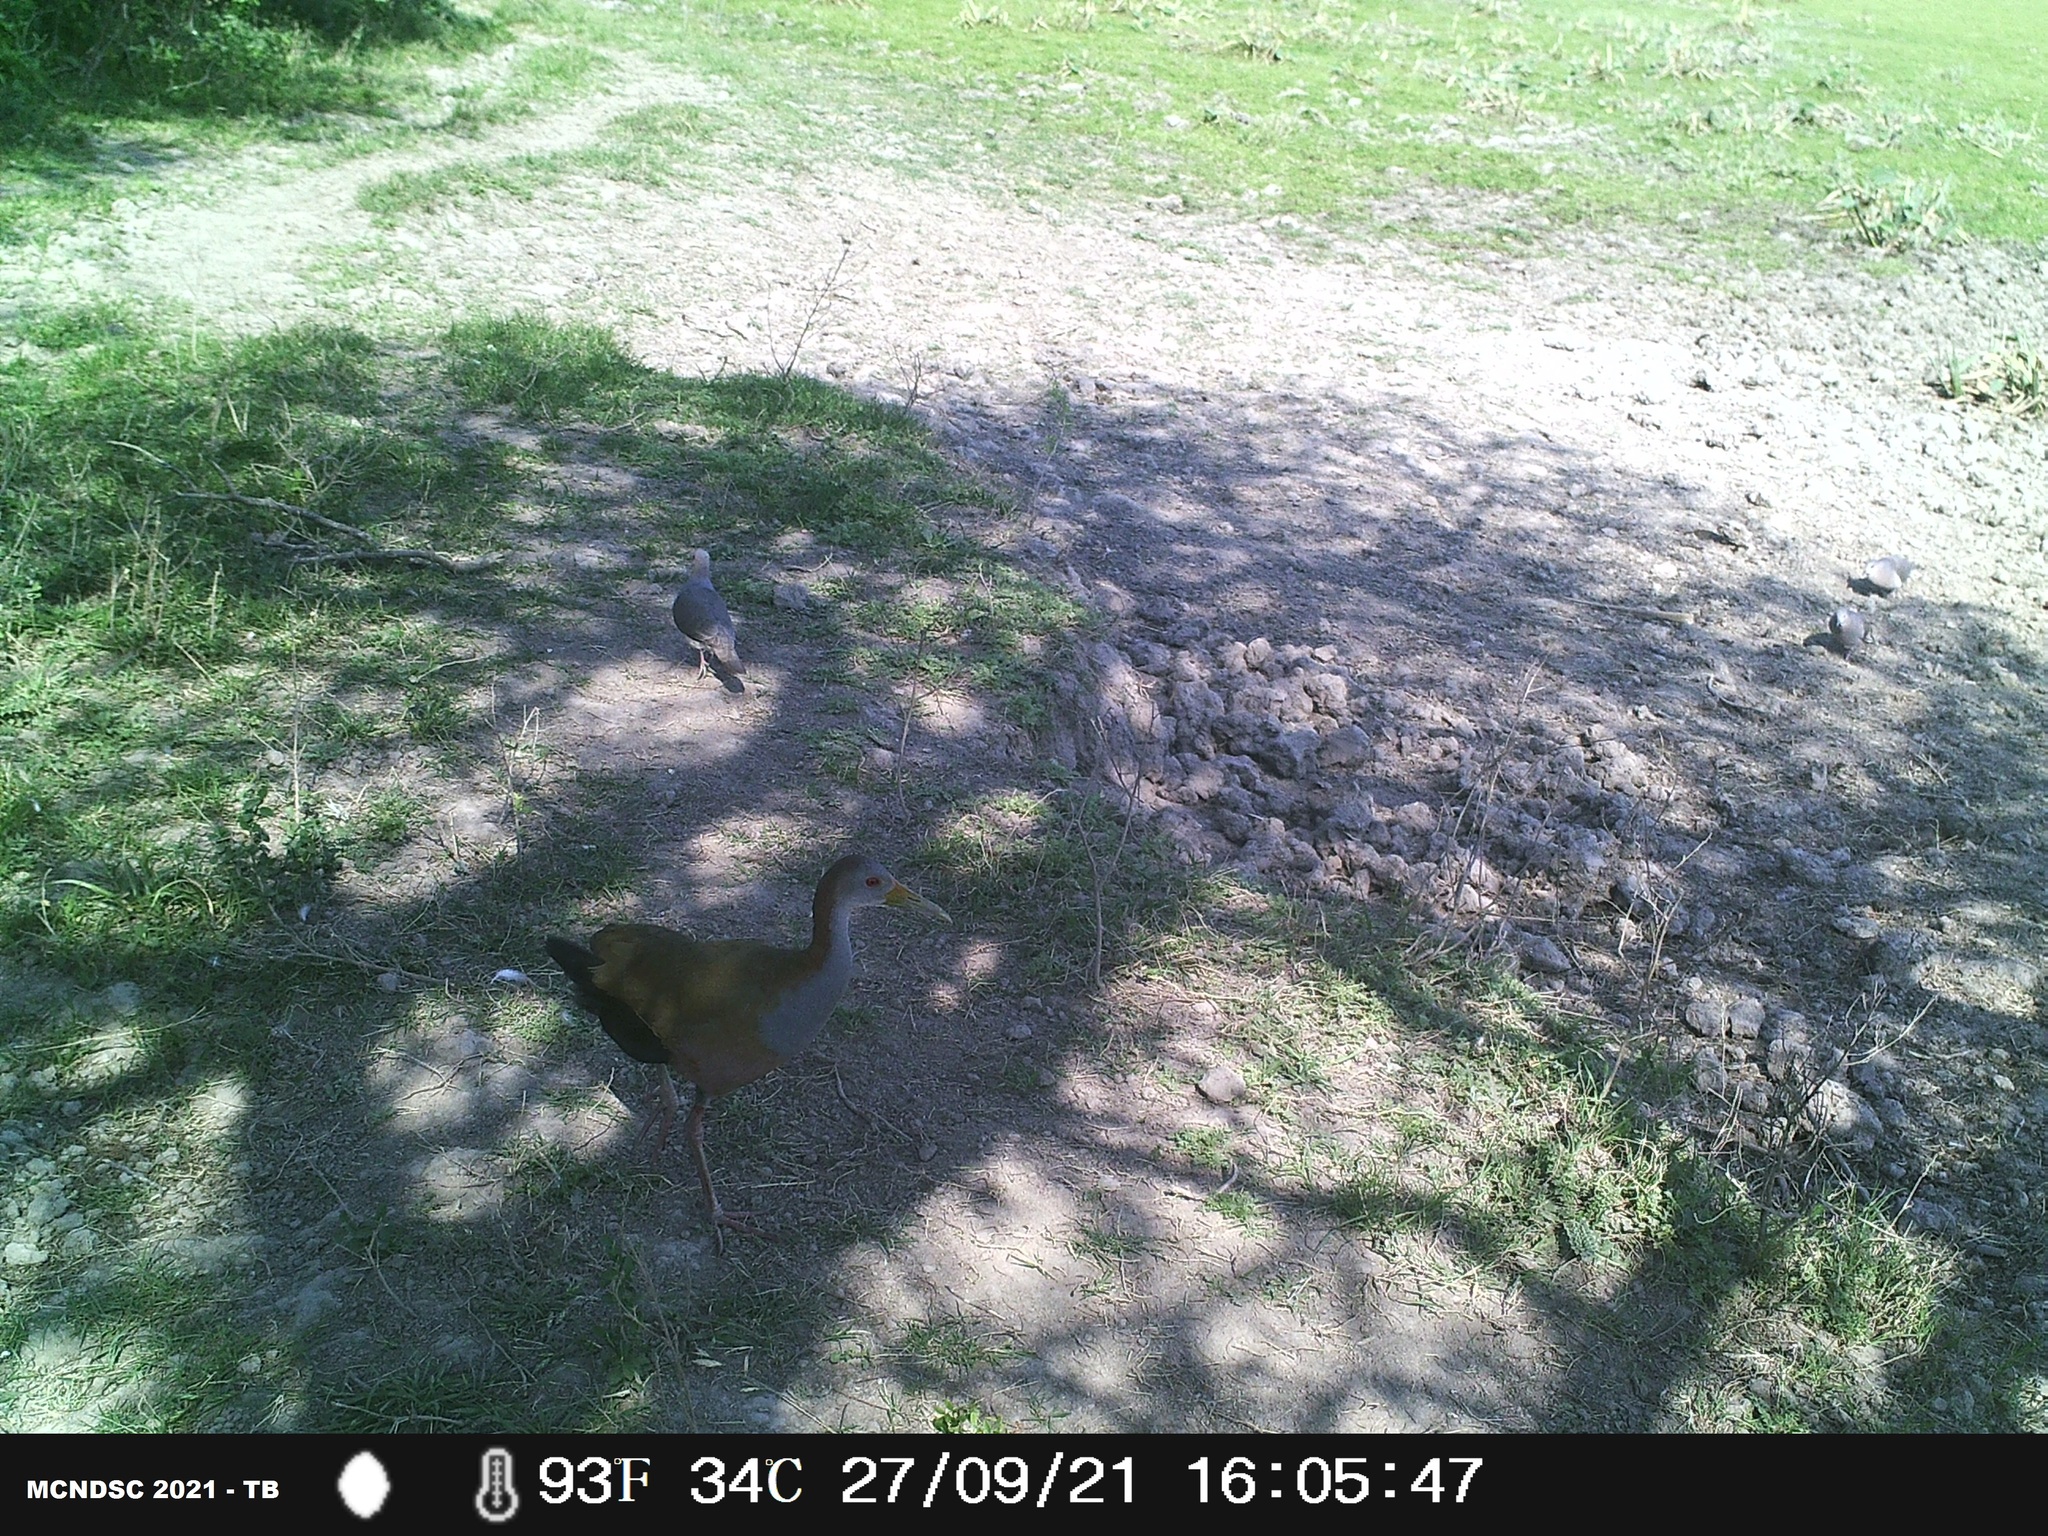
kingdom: Animalia
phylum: Chordata
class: Aves
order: Gruiformes
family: Rallidae
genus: Aramides
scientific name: Aramides ypecaha
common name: Giant wood rail
